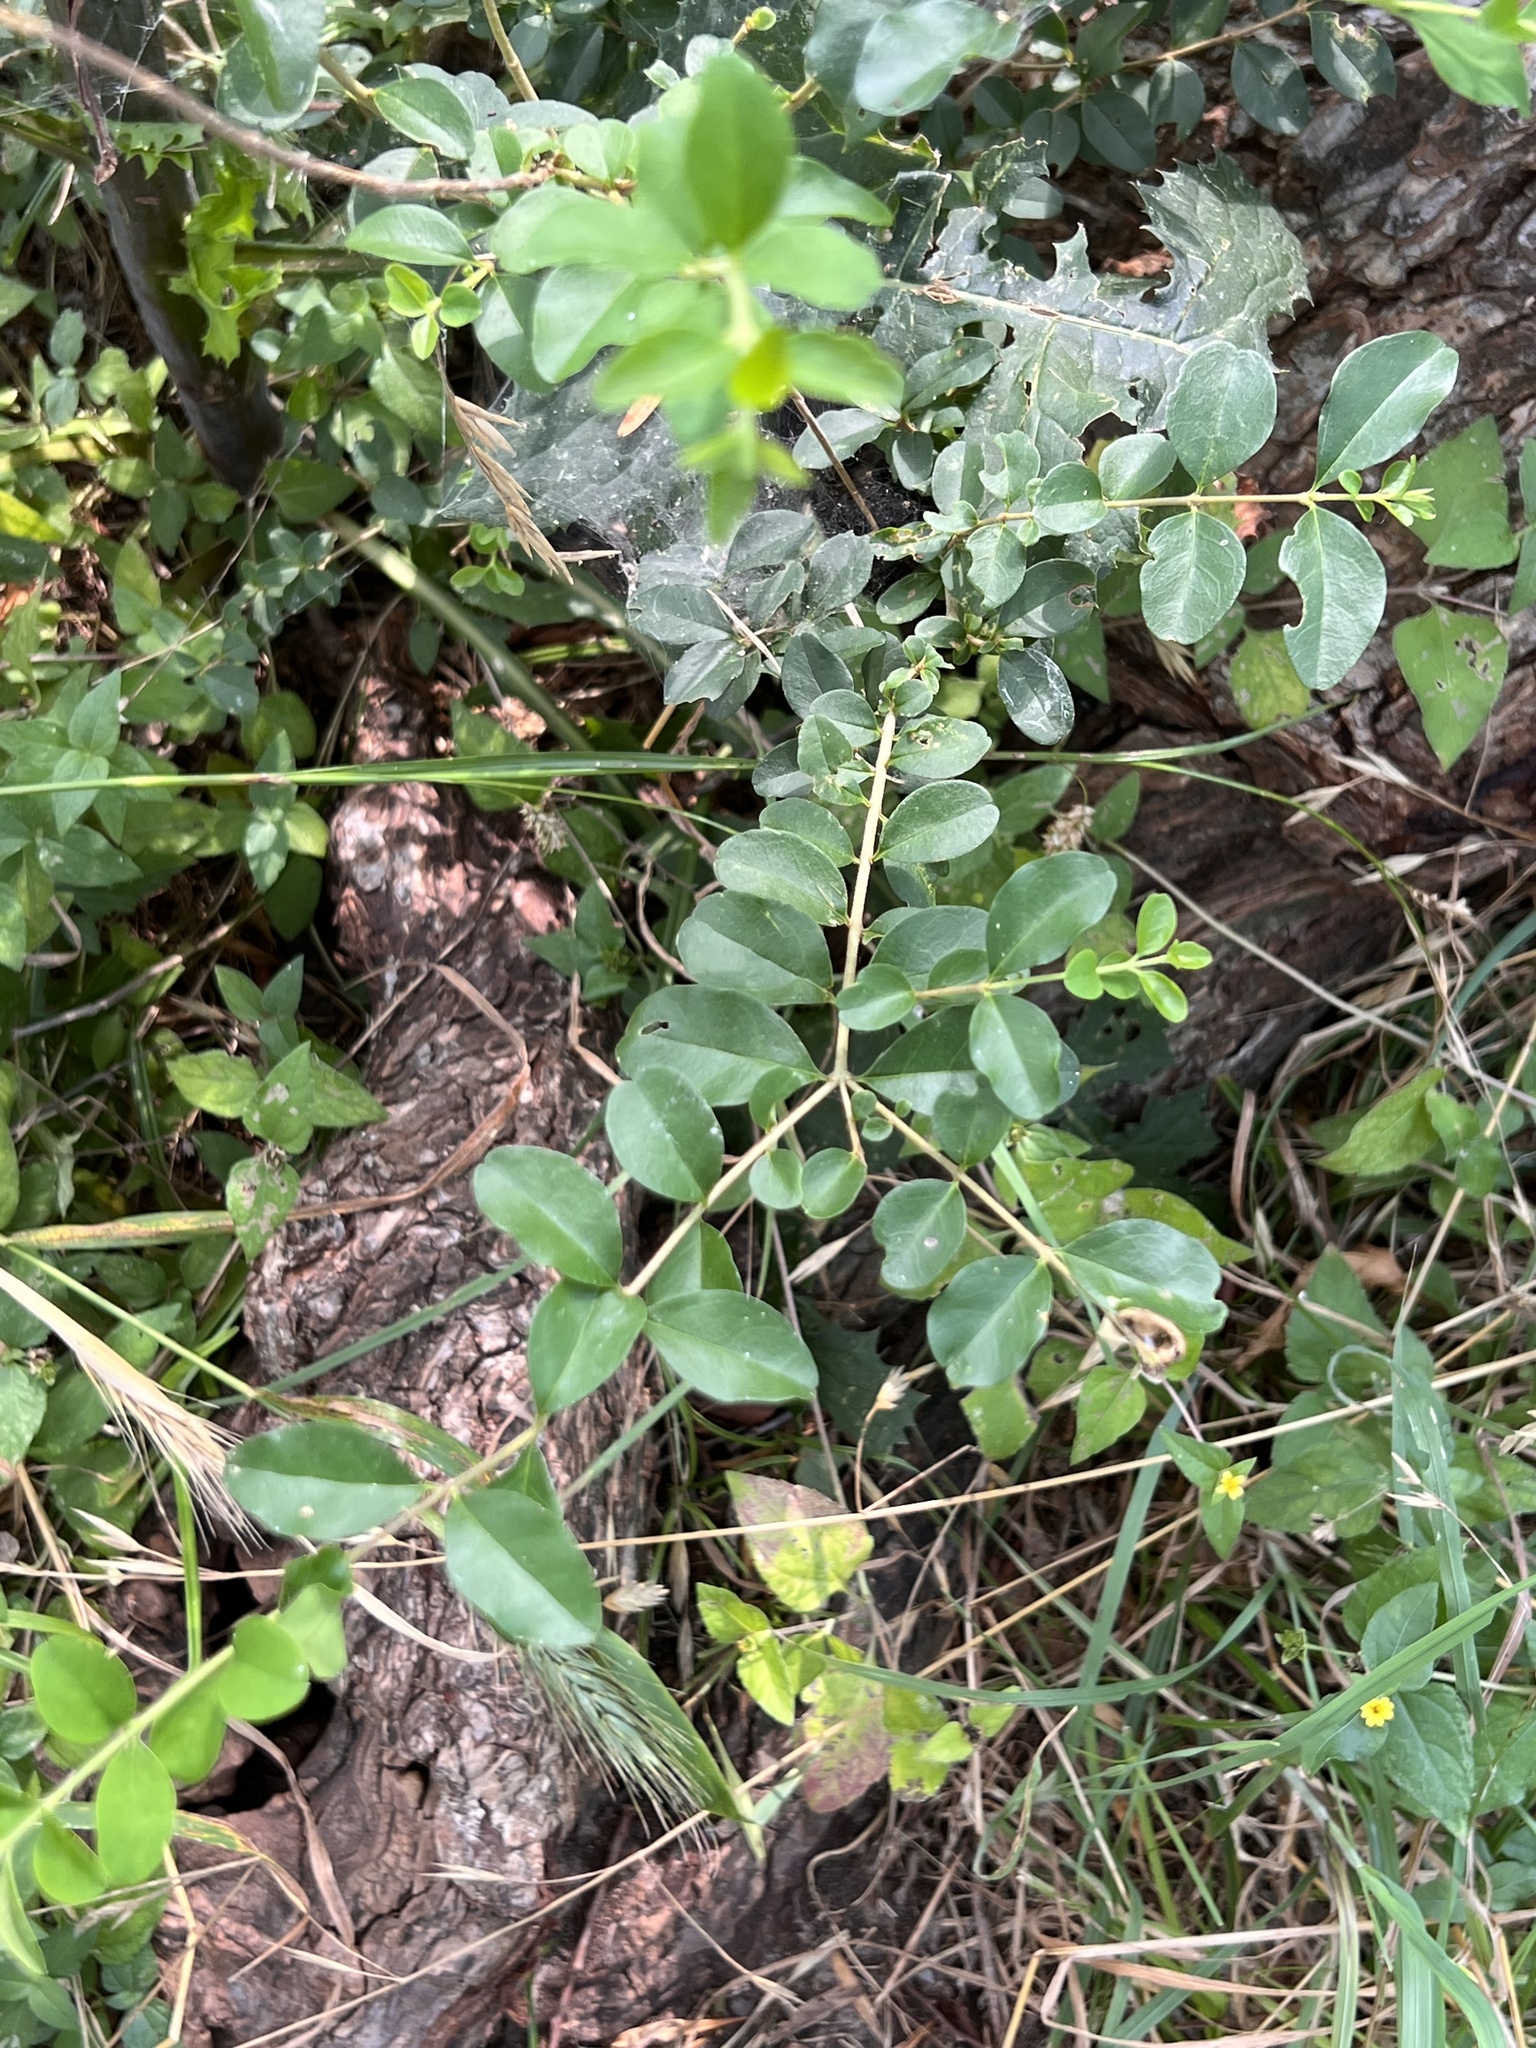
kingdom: Plantae
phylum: Tracheophyta
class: Magnoliopsida
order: Lamiales
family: Oleaceae
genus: Ligustrum
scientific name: Ligustrum sinense
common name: Chinese privet
